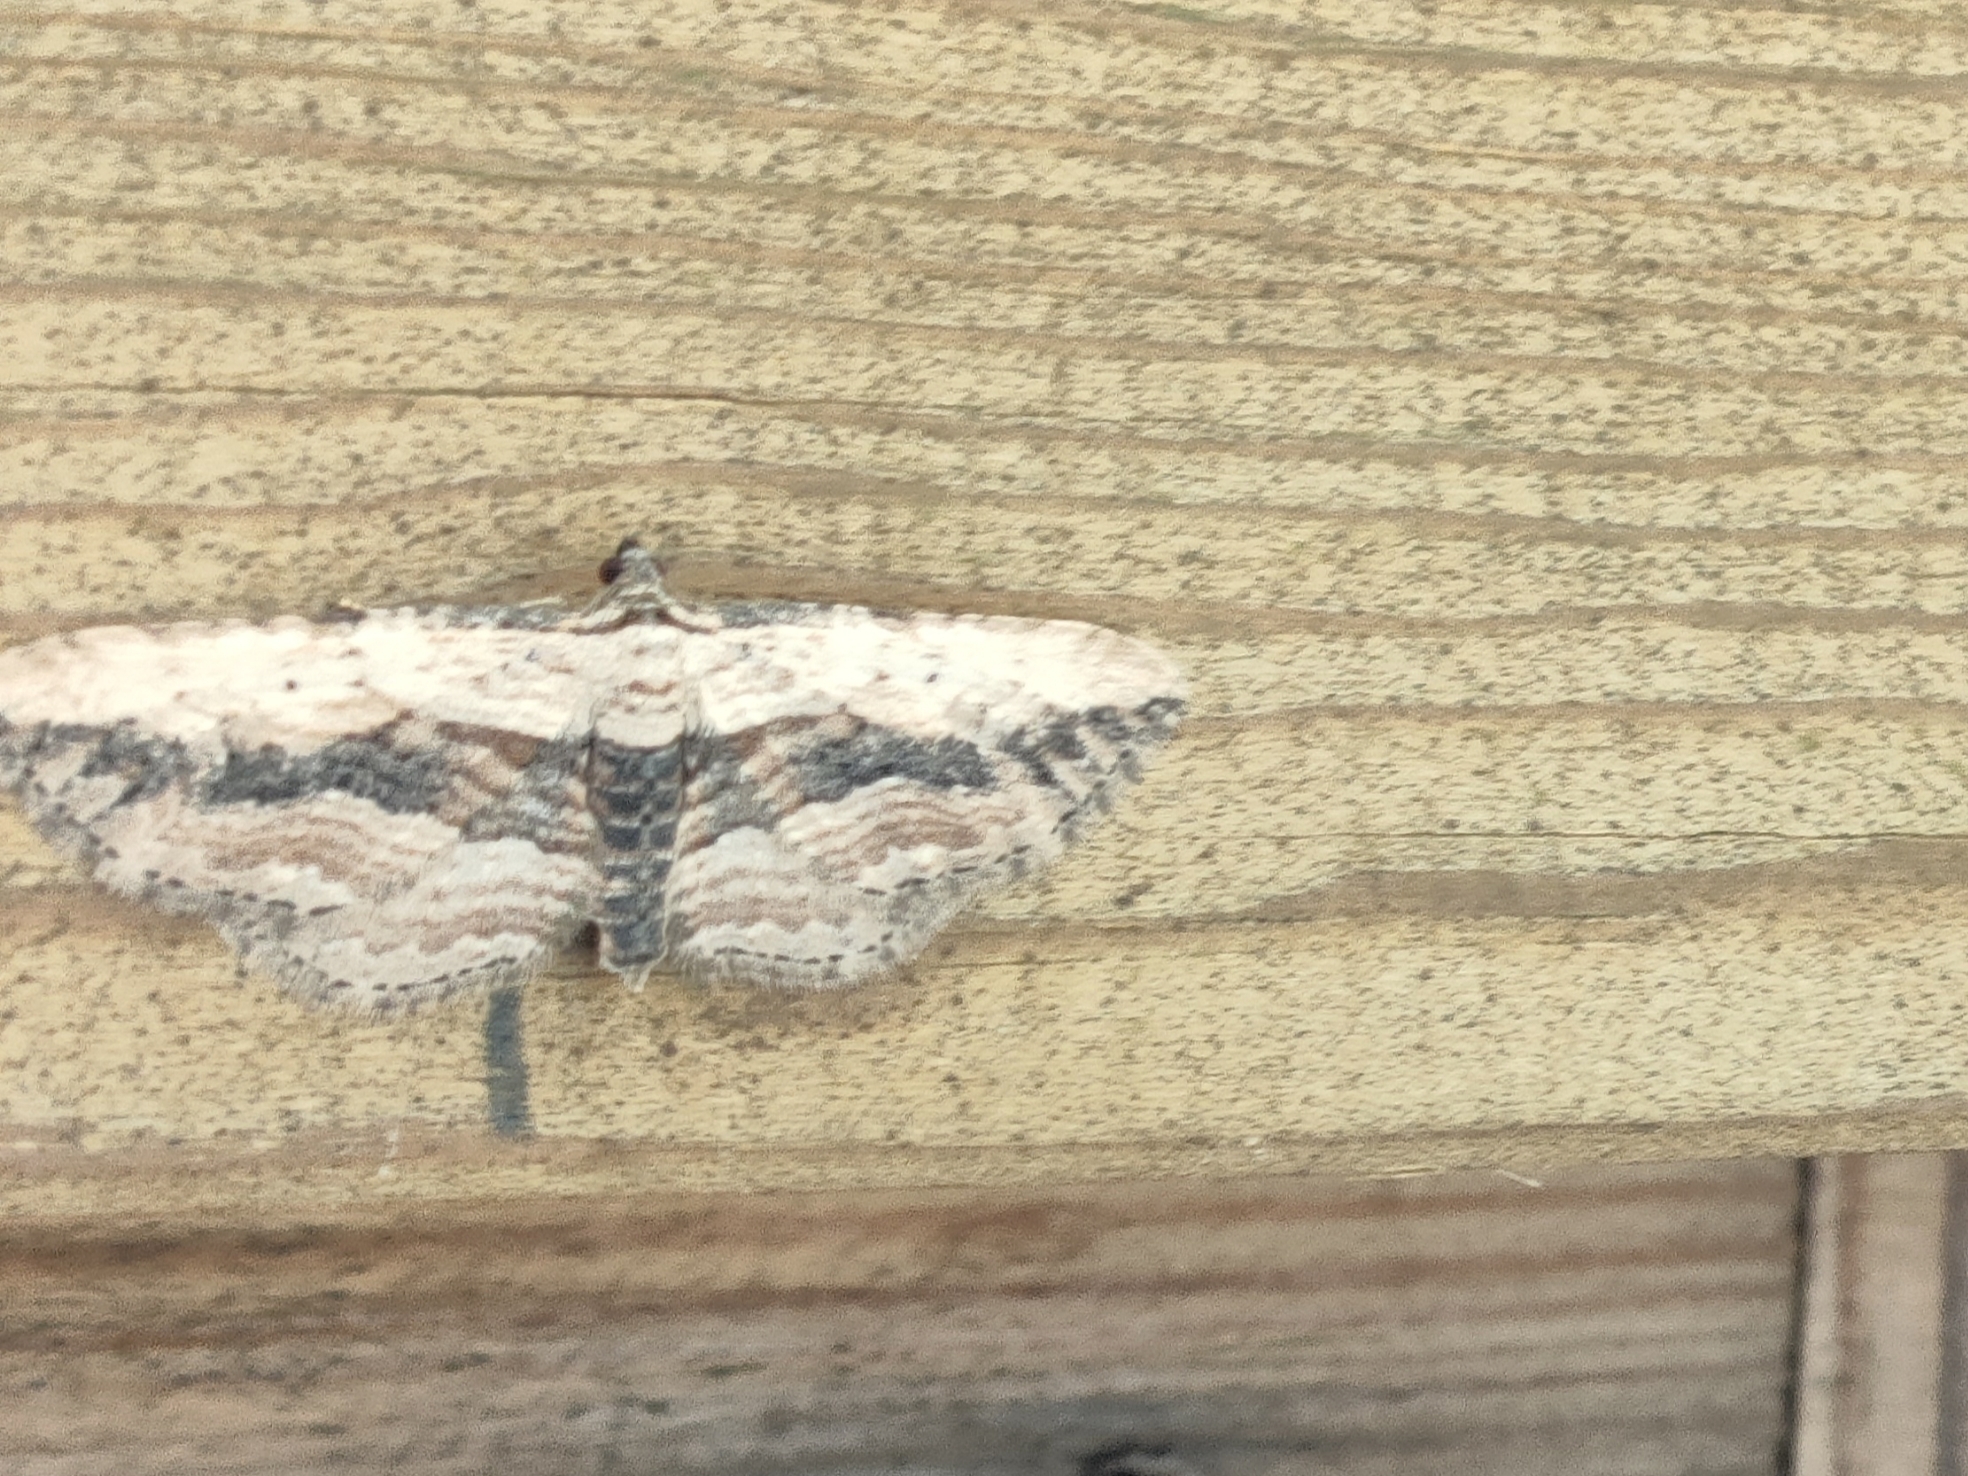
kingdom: Animalia
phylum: Arthropoda
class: Insecta
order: Lepidoptera
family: Geometridae
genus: Horisme
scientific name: Horisme vitalbata
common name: Small waved umber
